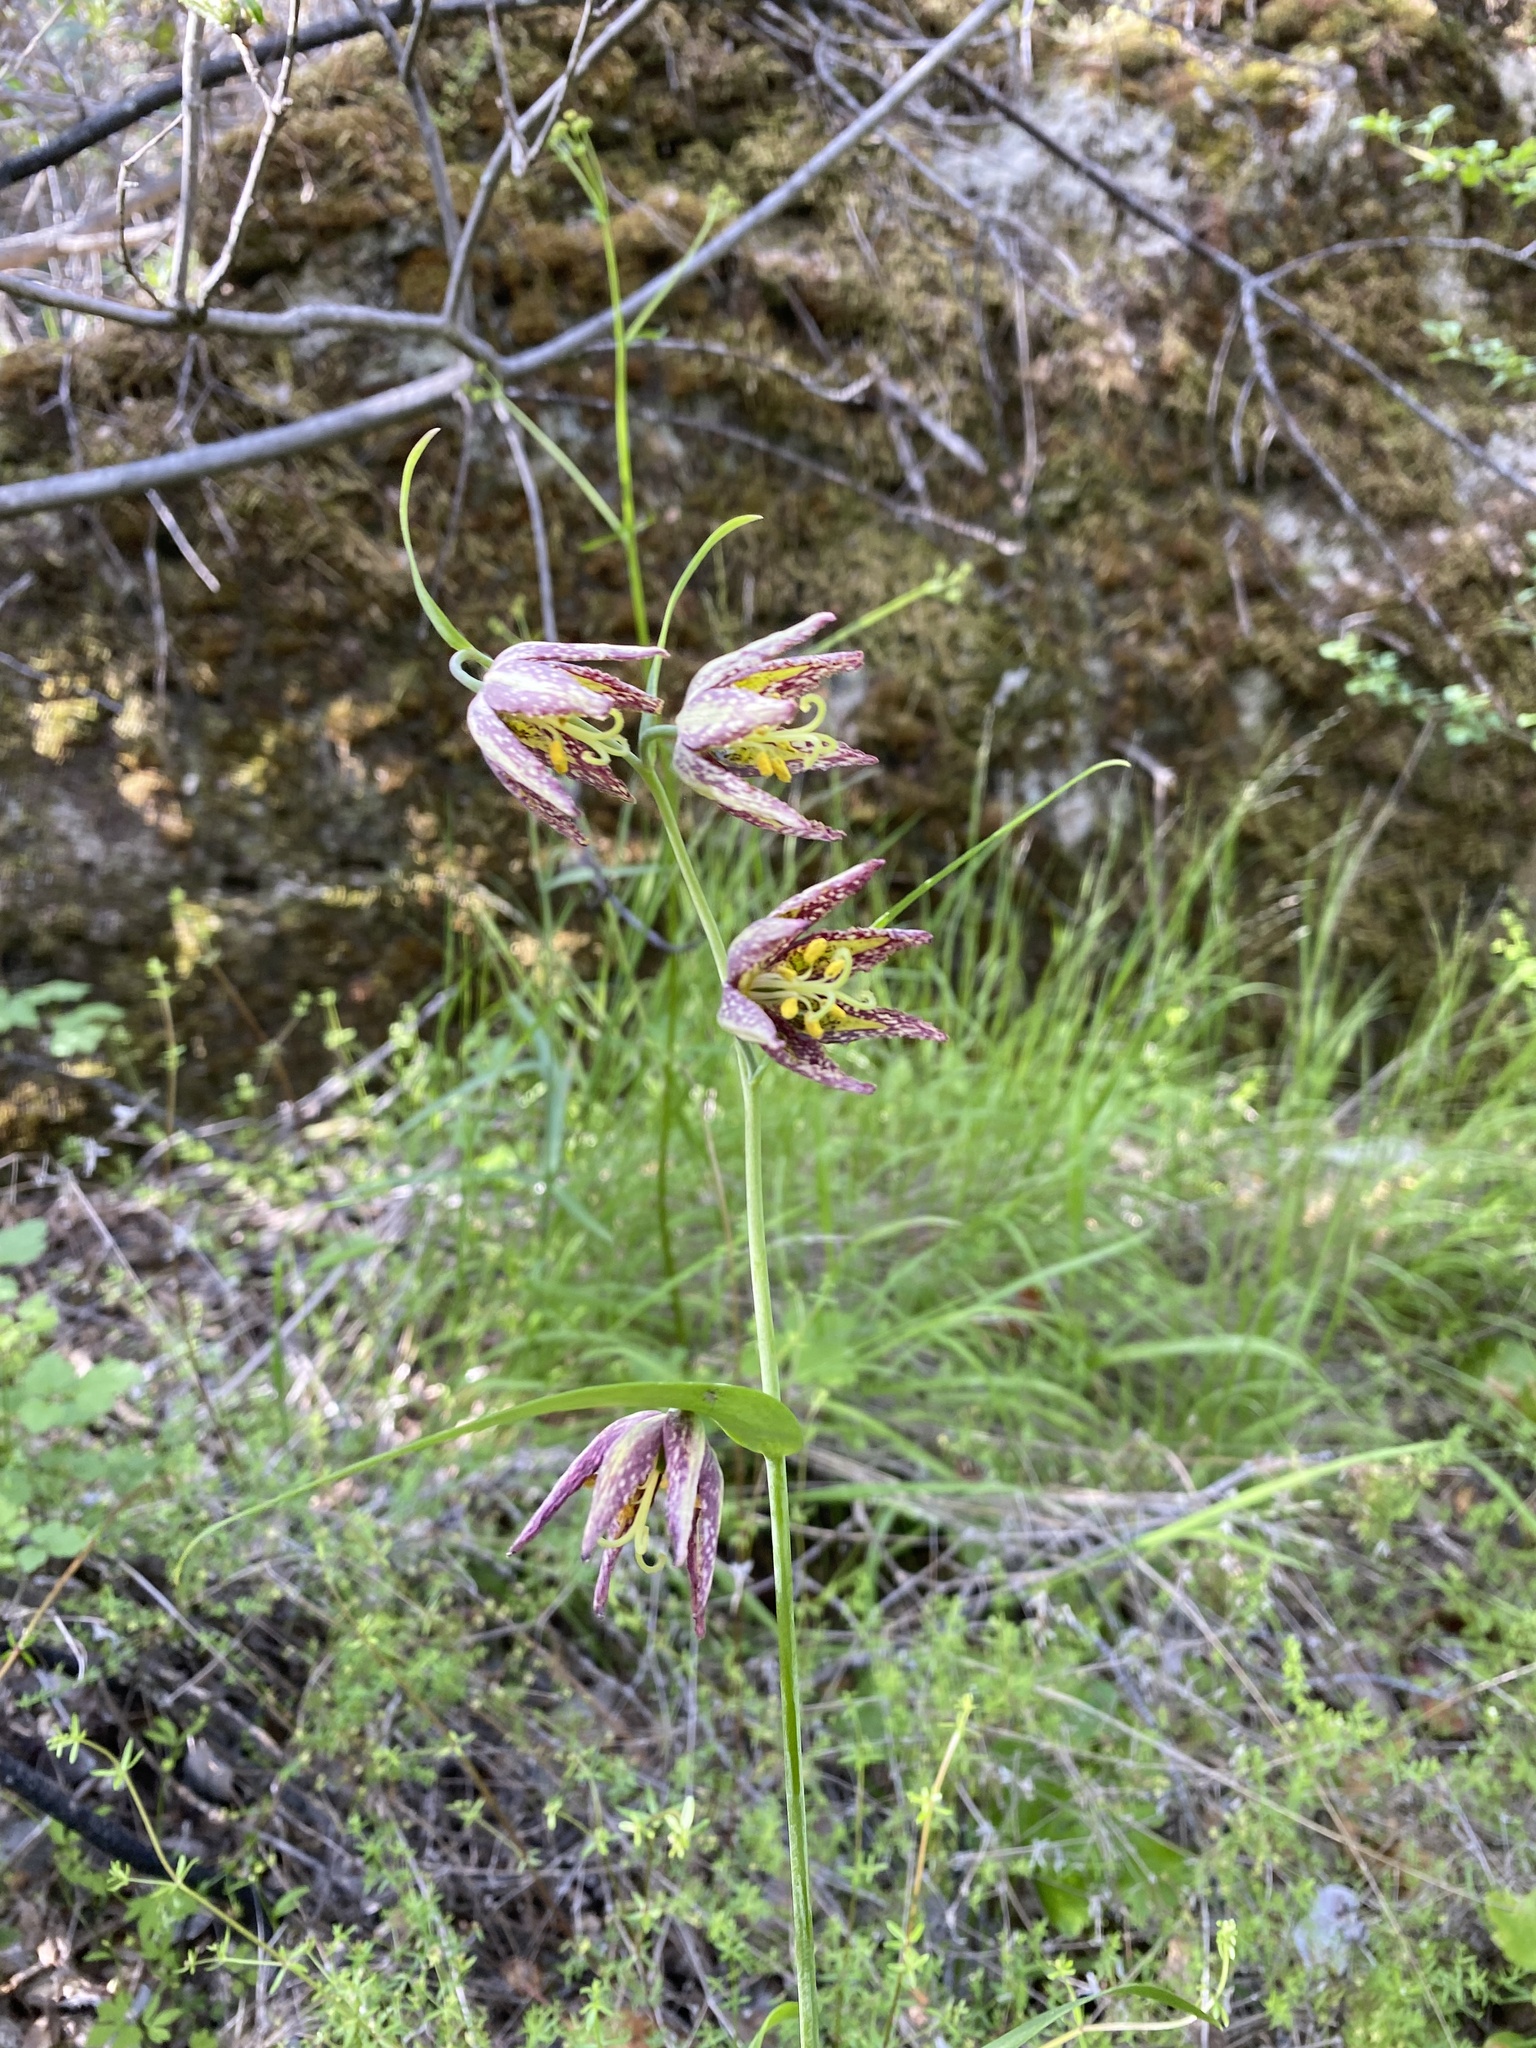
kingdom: Plantae
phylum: Tracheophyta
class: Liliopsida
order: Liliales
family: Liliaceae
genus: Fritillaria
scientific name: Fritillaria affinis
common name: Ojai fritillary
